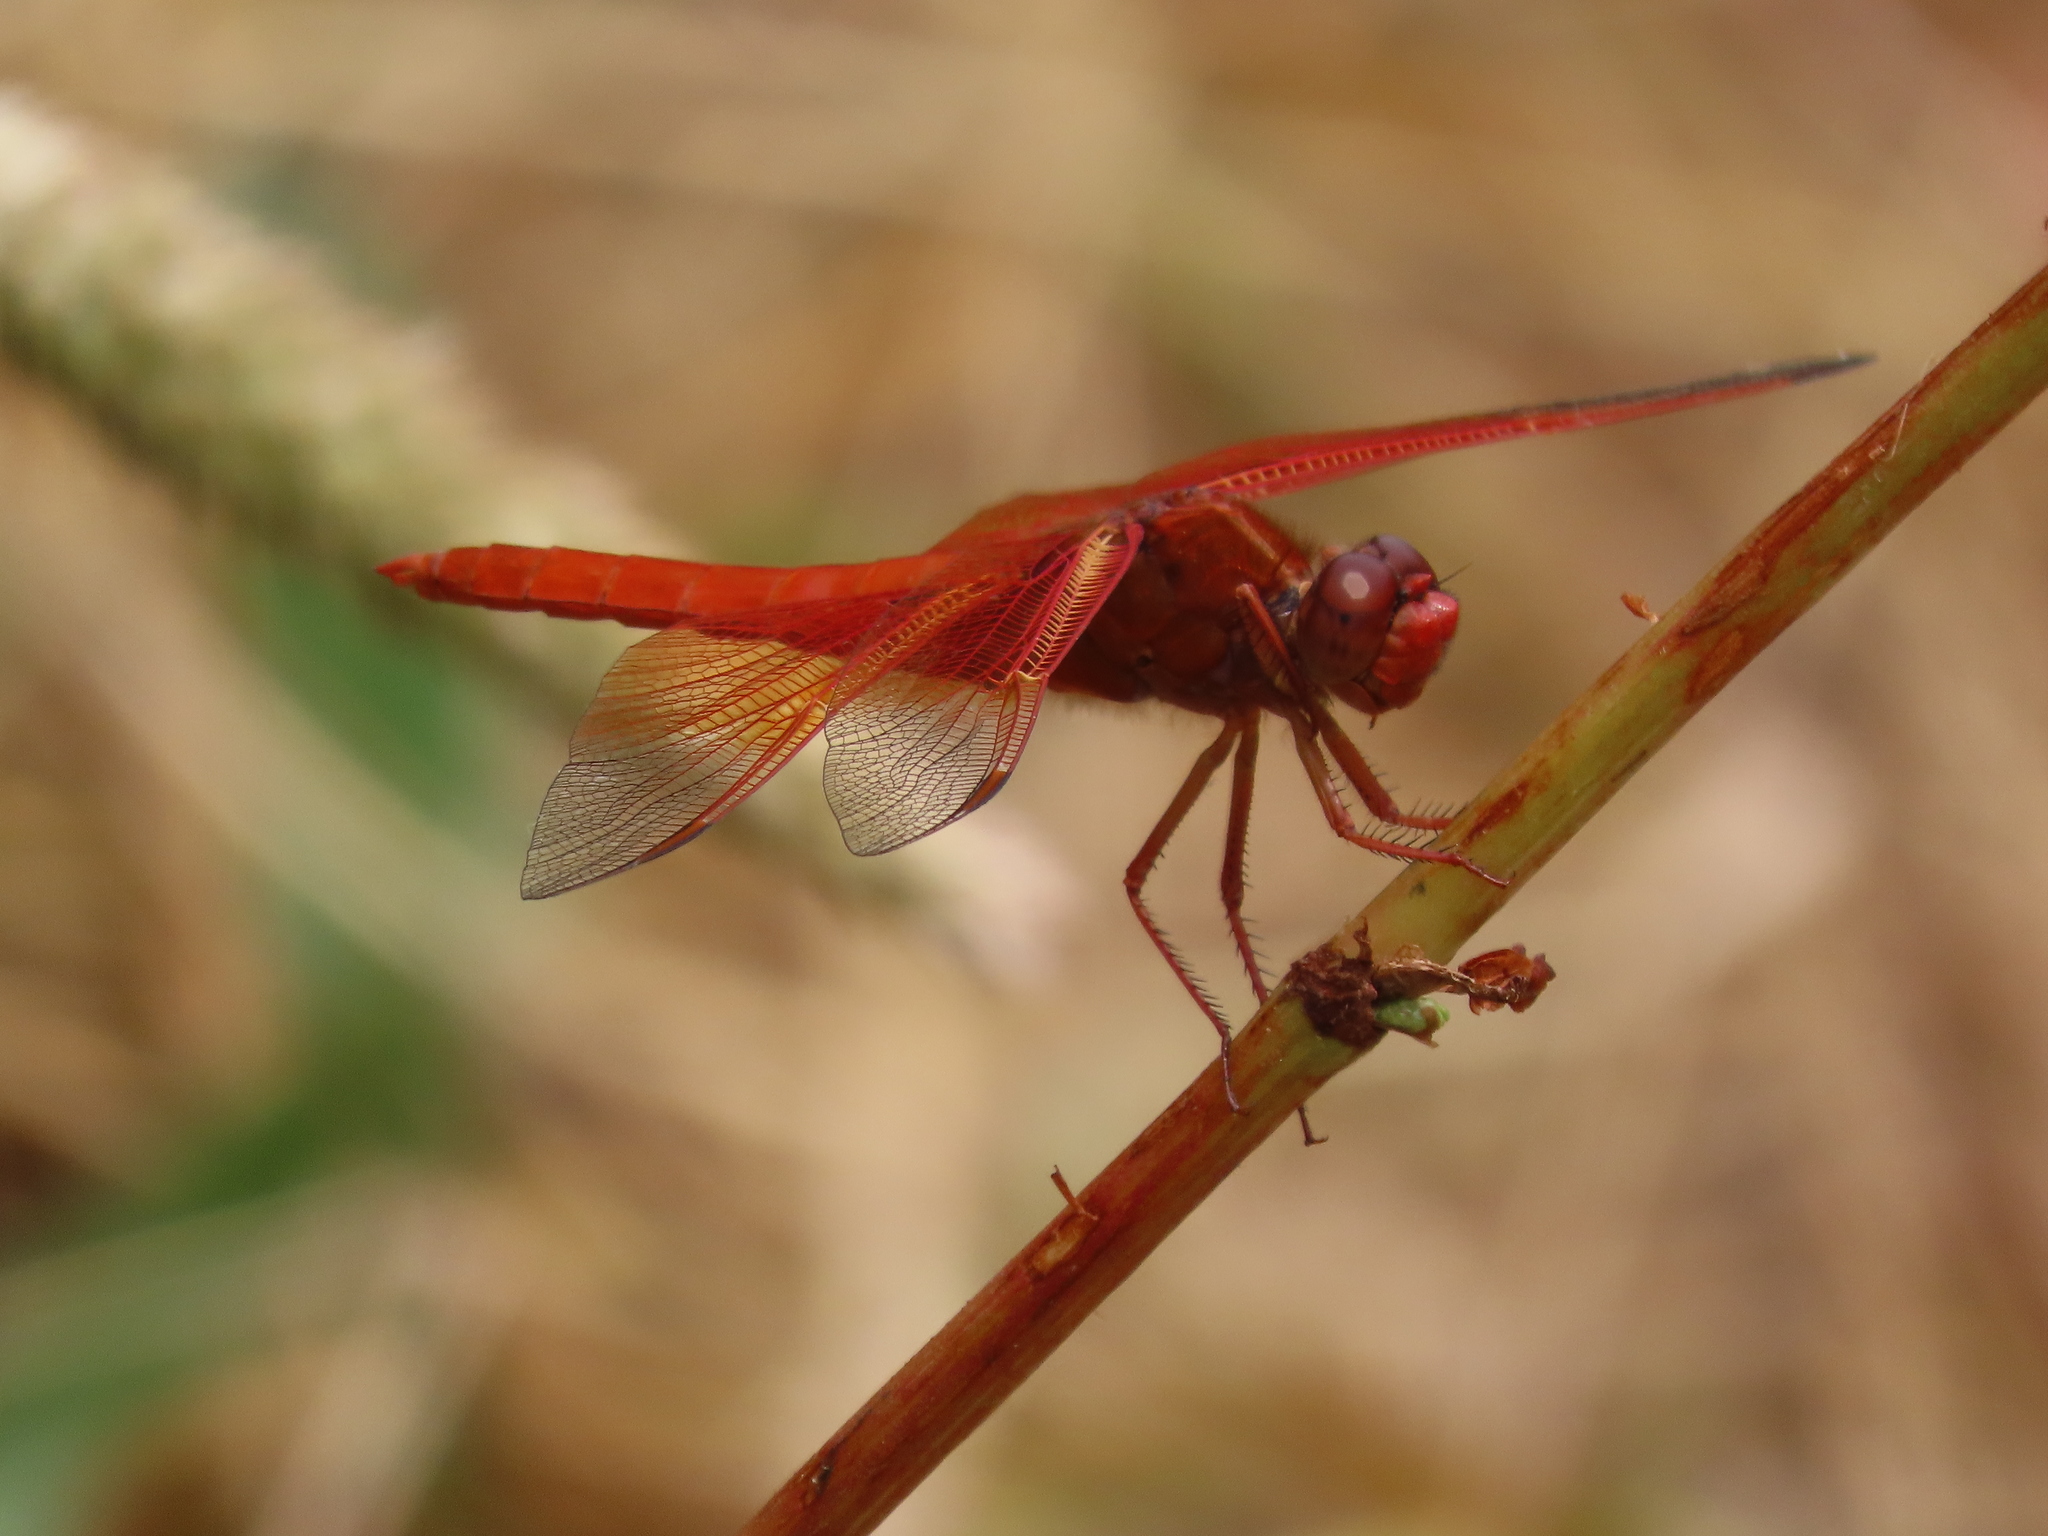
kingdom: Animalia
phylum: Arthropoda
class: Insecta
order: Odonata
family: Libellulidae
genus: Libellula
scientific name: Libellula saturata
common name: Flame skimmer
